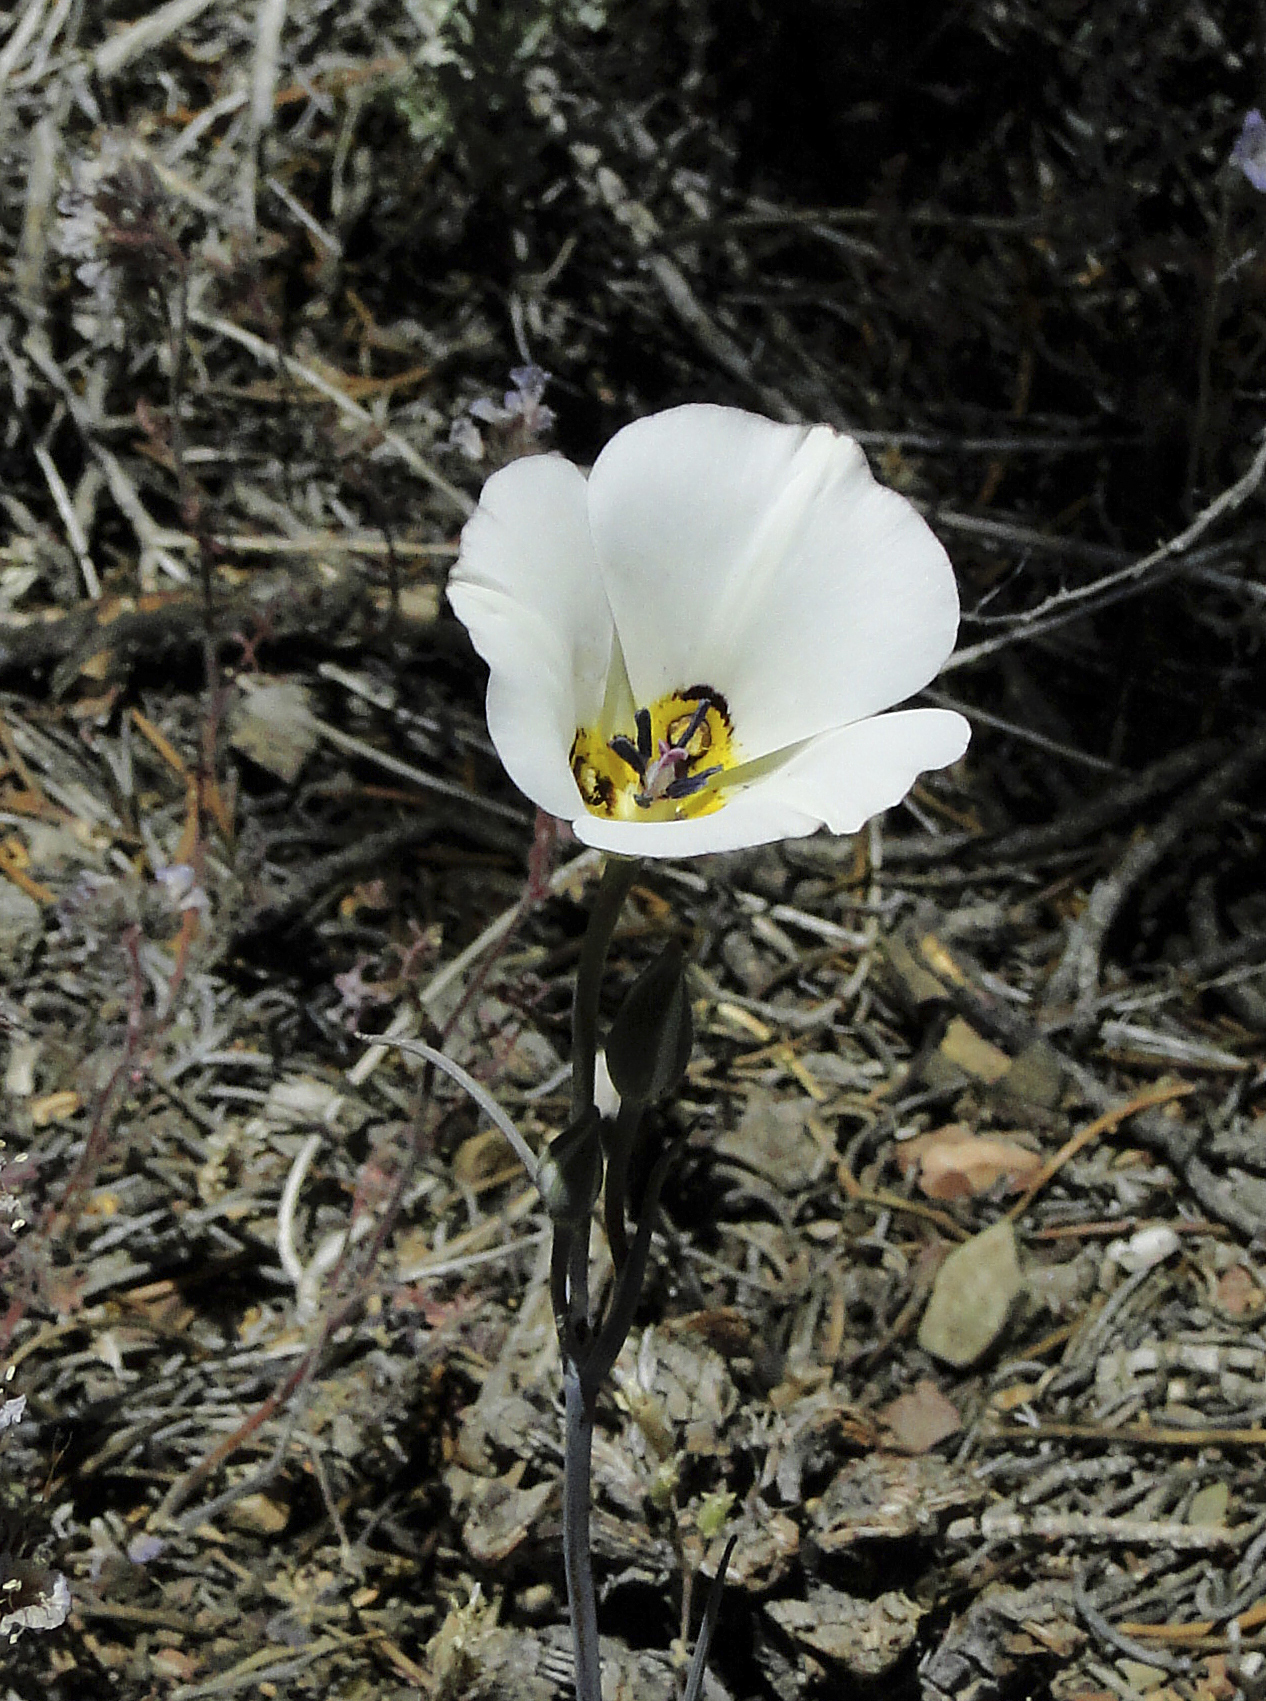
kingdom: Plantae
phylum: Tracheophyta
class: Liliopsida
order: Liliales
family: Liliaceae
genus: Calochortus
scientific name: Calochortus bruneaunis
